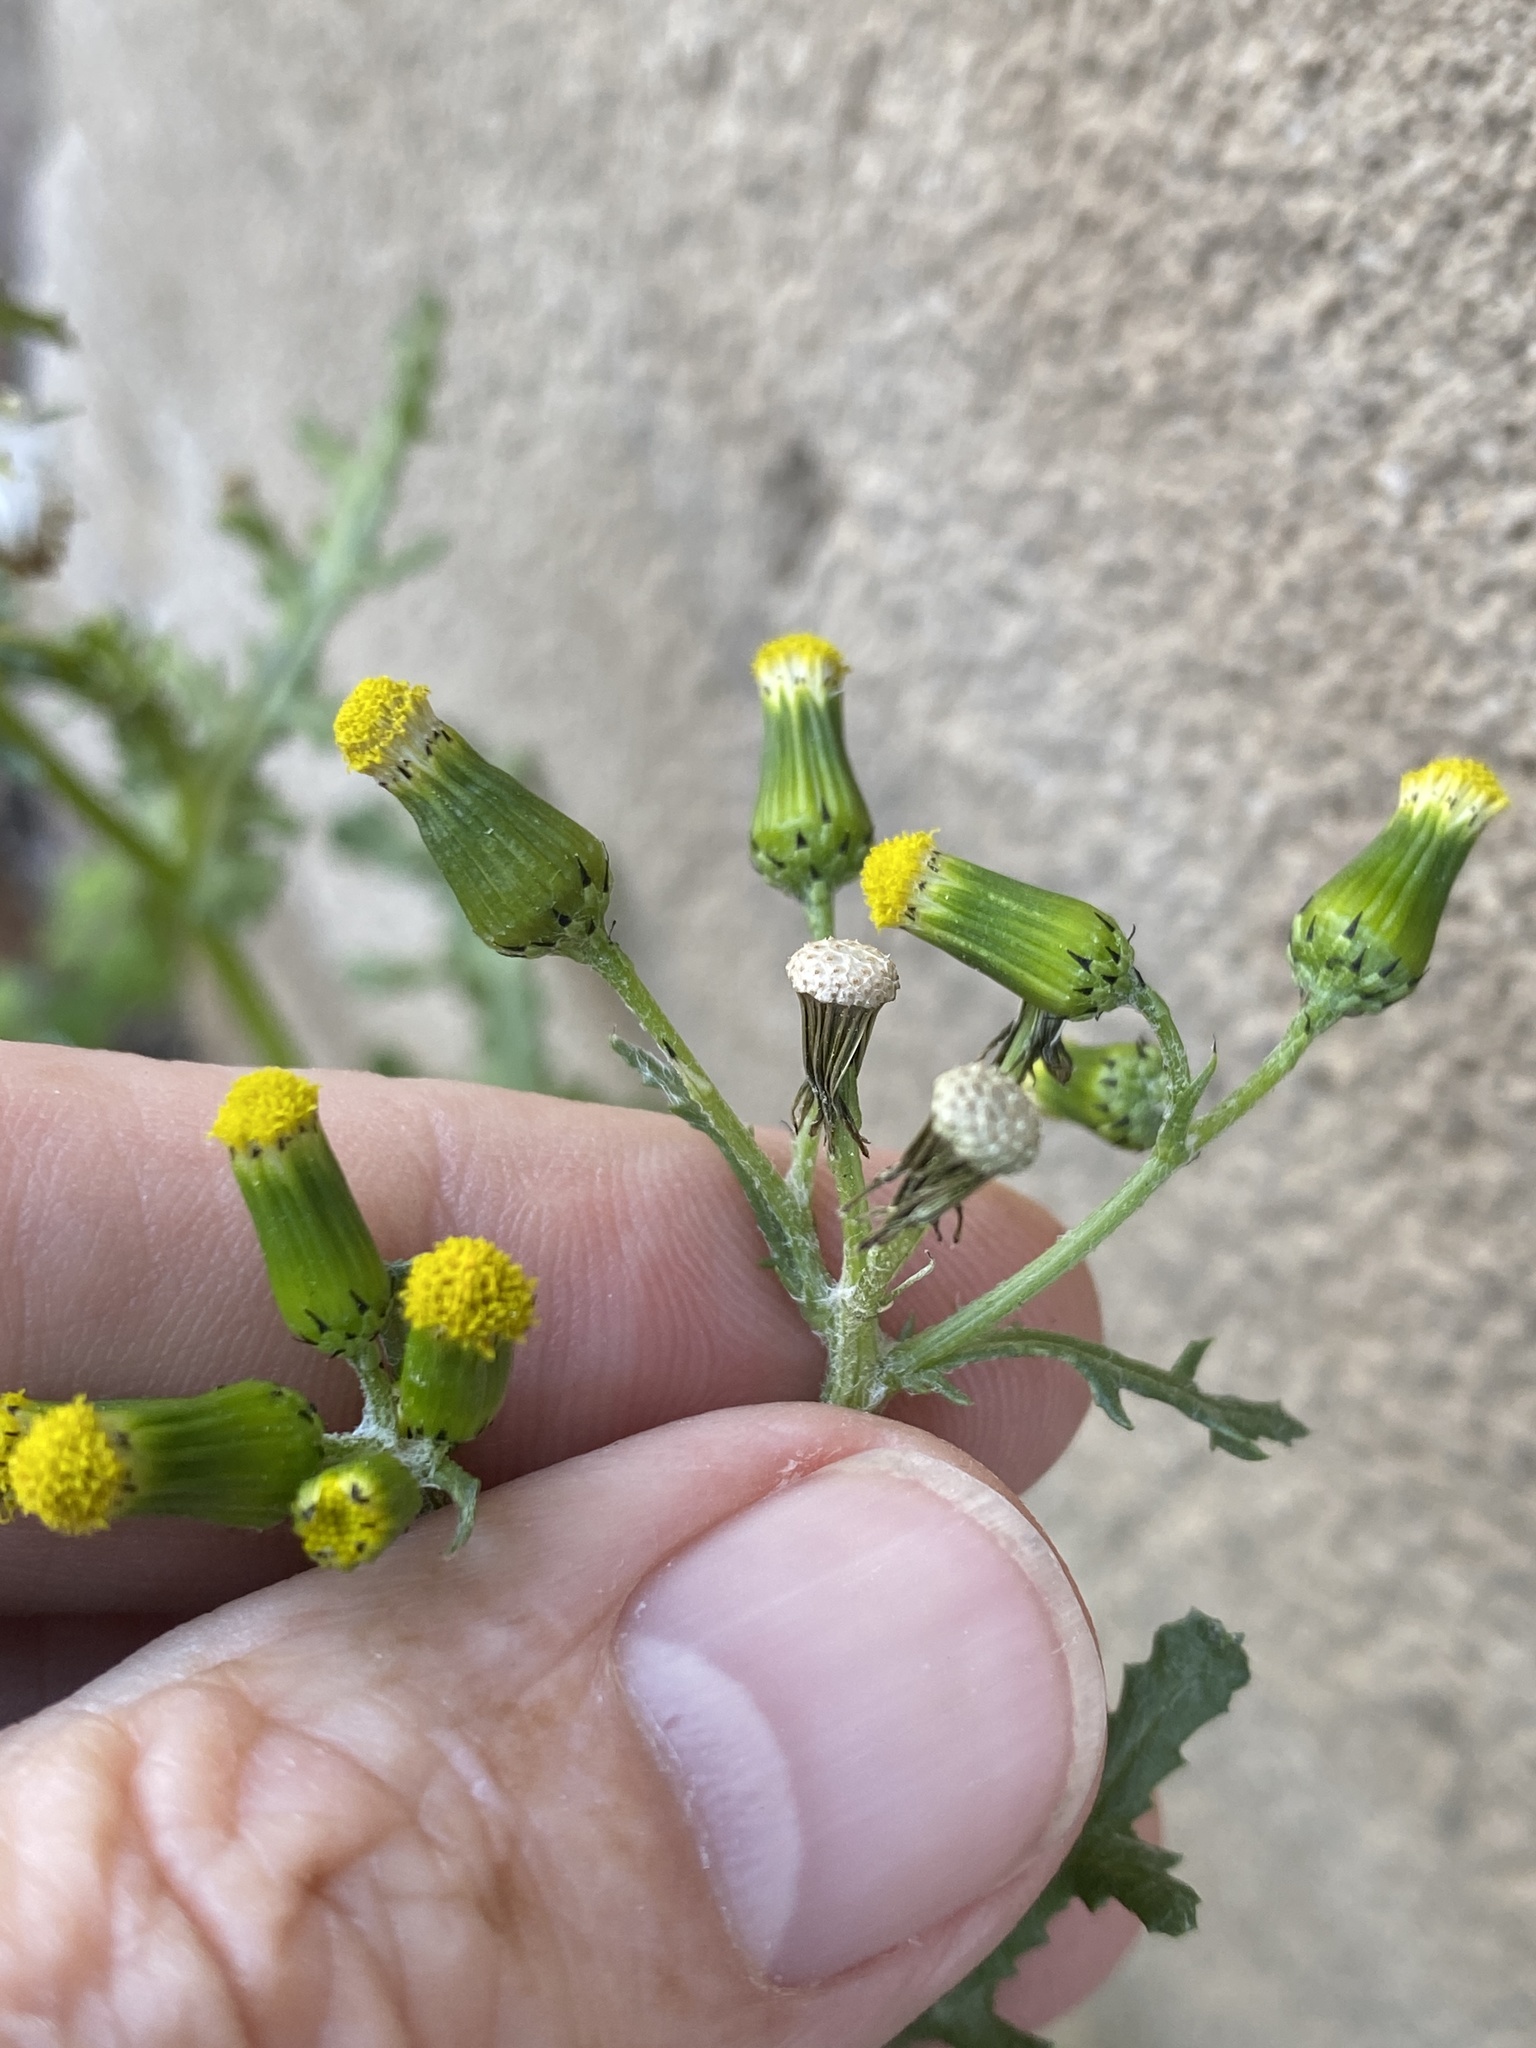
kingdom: Plantae
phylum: Tracheophyta
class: Magnoliopsida
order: Asterales
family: Asteraceae
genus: Senecio
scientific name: Senecio vulgaris
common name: Old-man-in-the-spring
